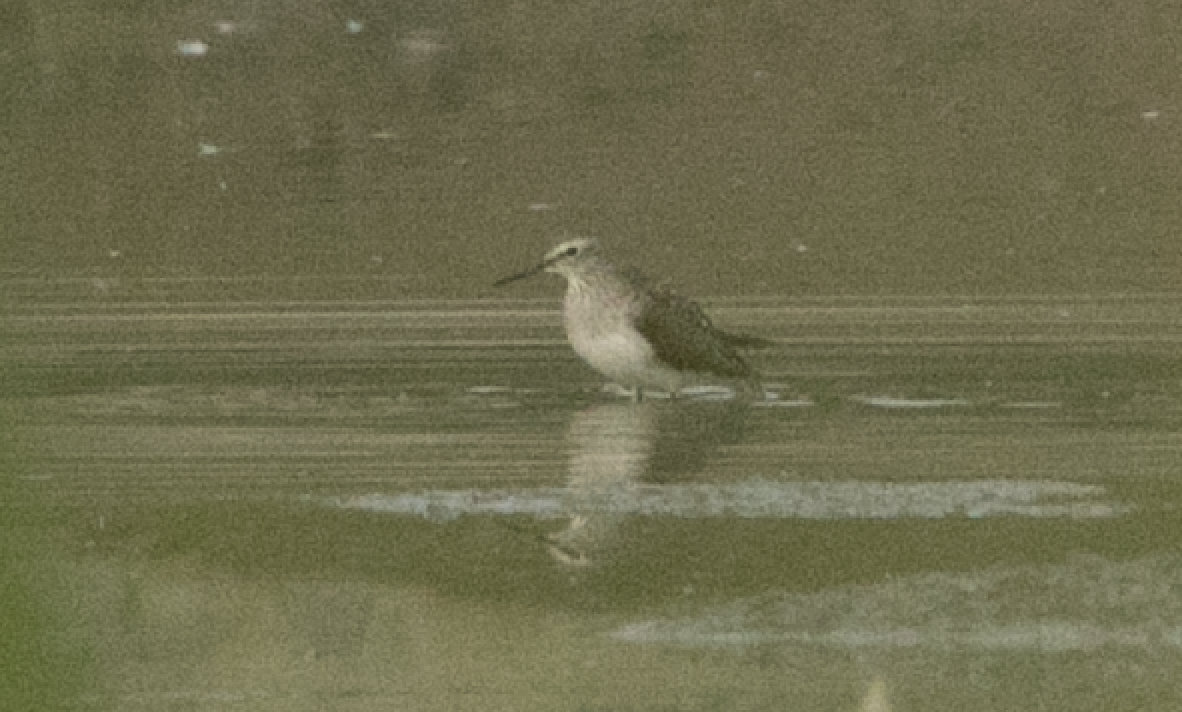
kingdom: Animalia
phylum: Chordata
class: Aves
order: Charadriiformes
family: Scolopacidae
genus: Tringa
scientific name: Tringa glareola
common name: Wood sandpiper
